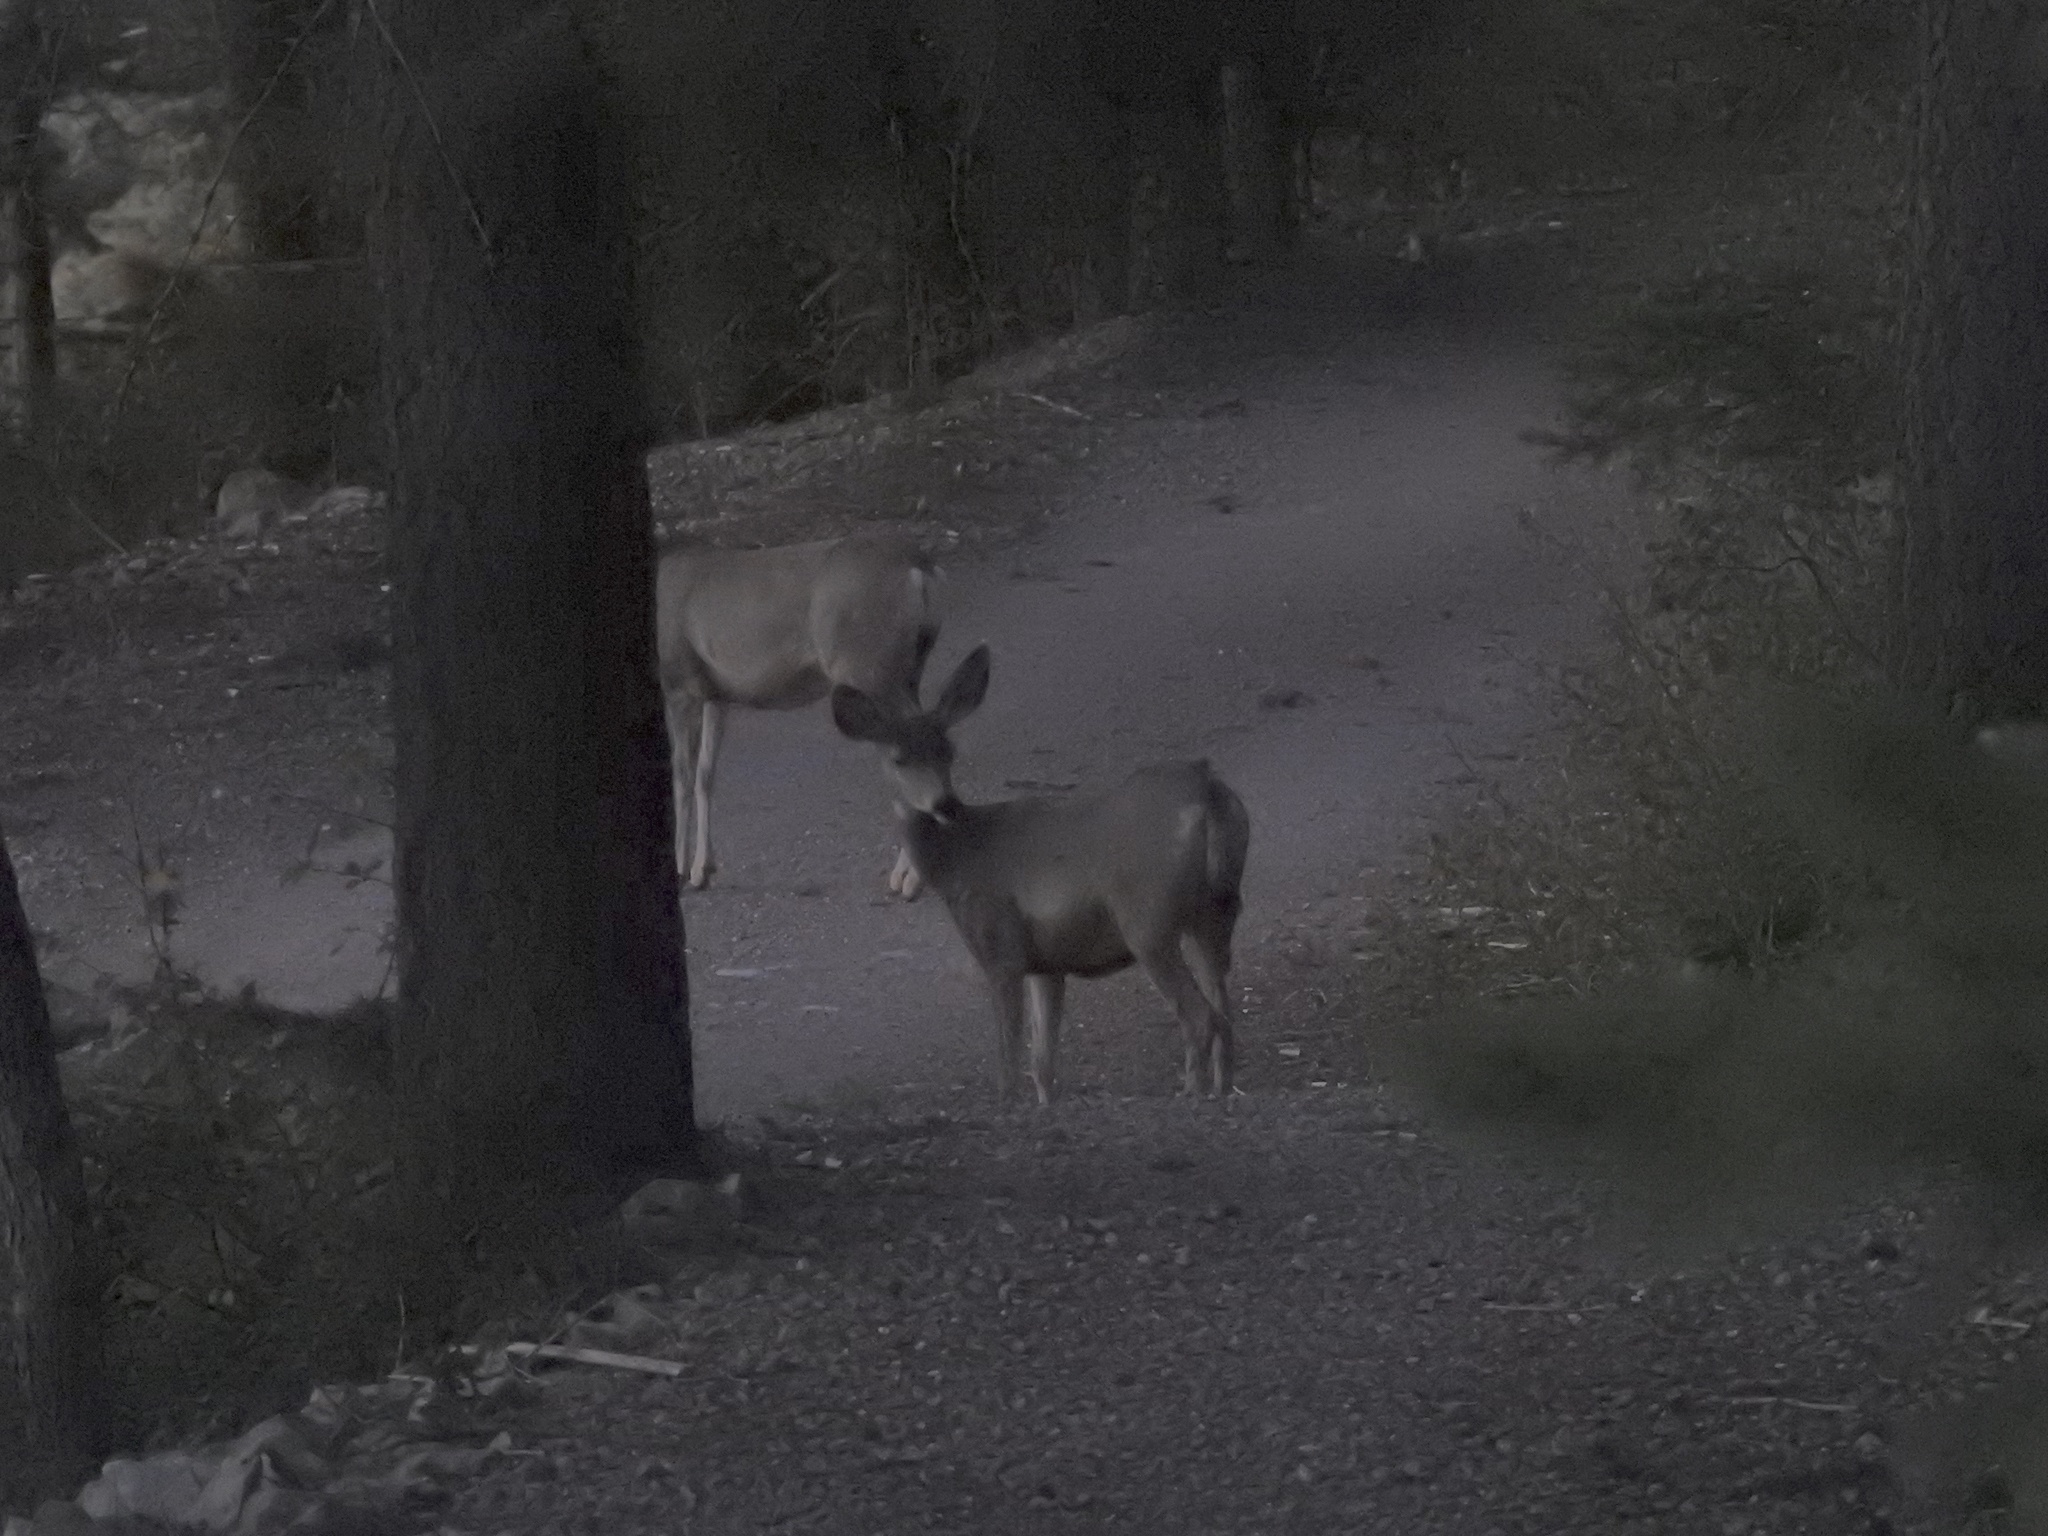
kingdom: Animalia
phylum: Chordata
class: Mammalia
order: Artiodactyla
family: Cervidae
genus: Odocoileus
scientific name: Odocoileus hemionus
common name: Mule deer
